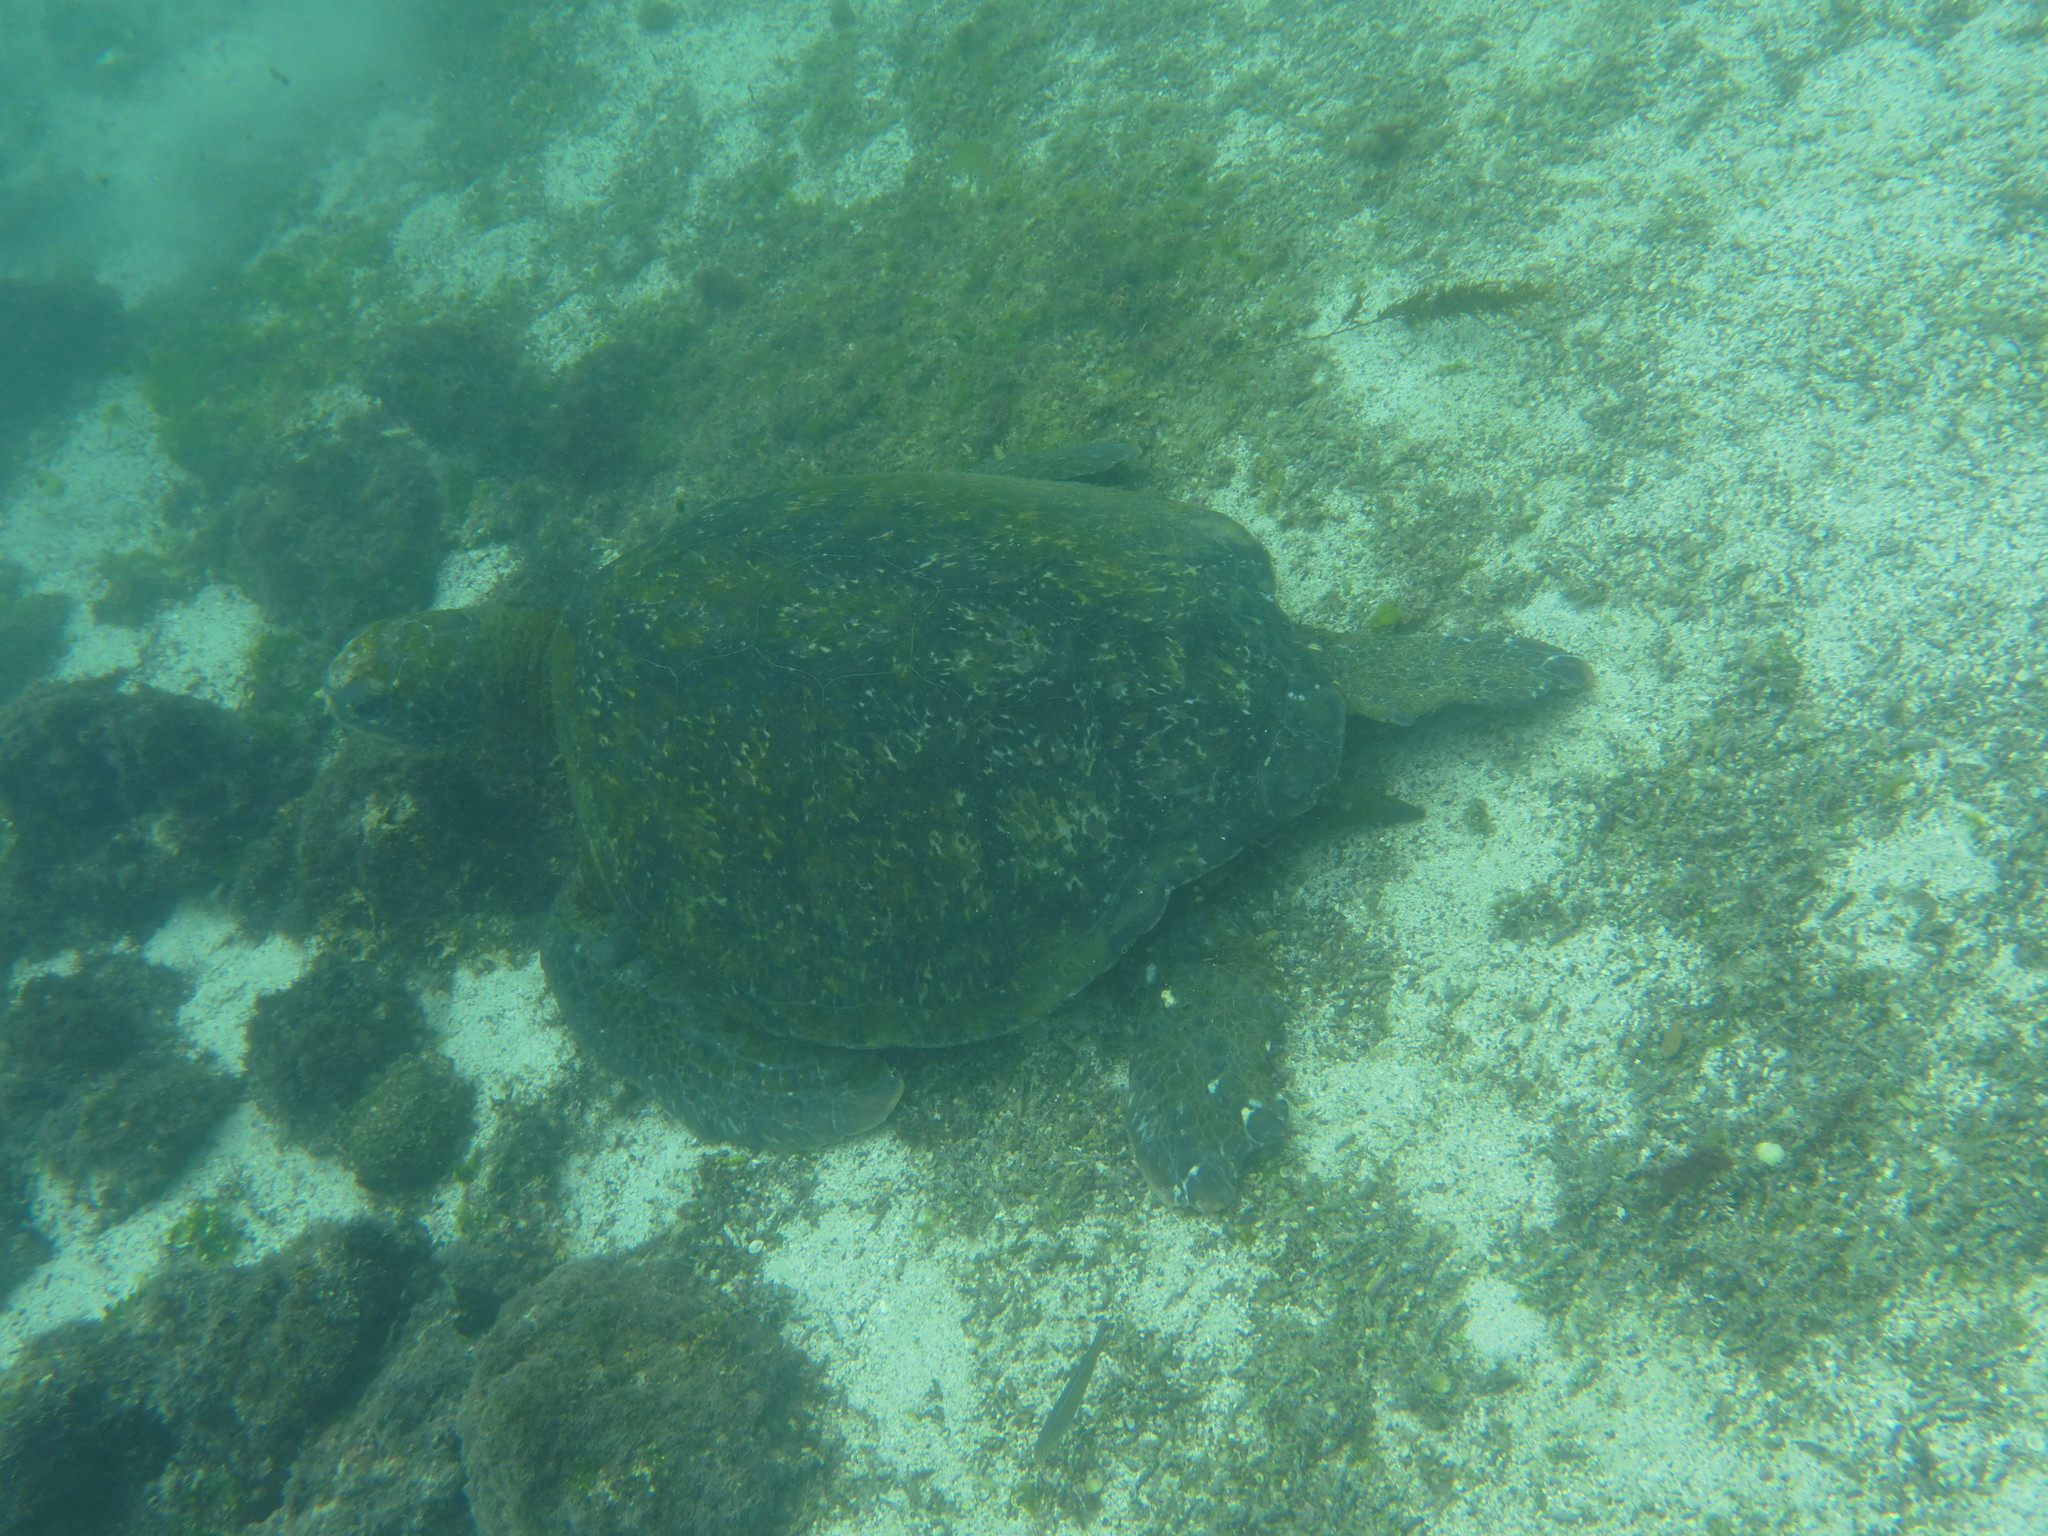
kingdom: Animalia
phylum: Chordata
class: Testudines
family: Cheloniidae
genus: Chelonia
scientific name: Chelonia mydas
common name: Green turtle
